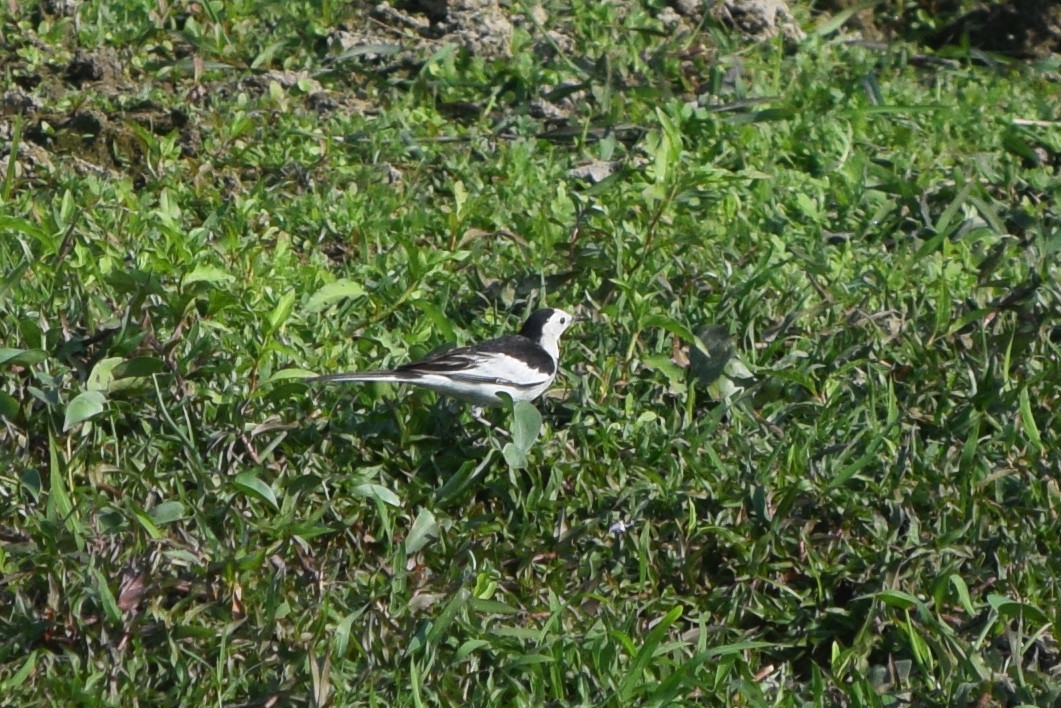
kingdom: Animalia
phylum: Chordata
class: Aves
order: Passeriformes
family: Motacillidae
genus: Motacilla
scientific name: Motacilla alba
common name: White wagtail
